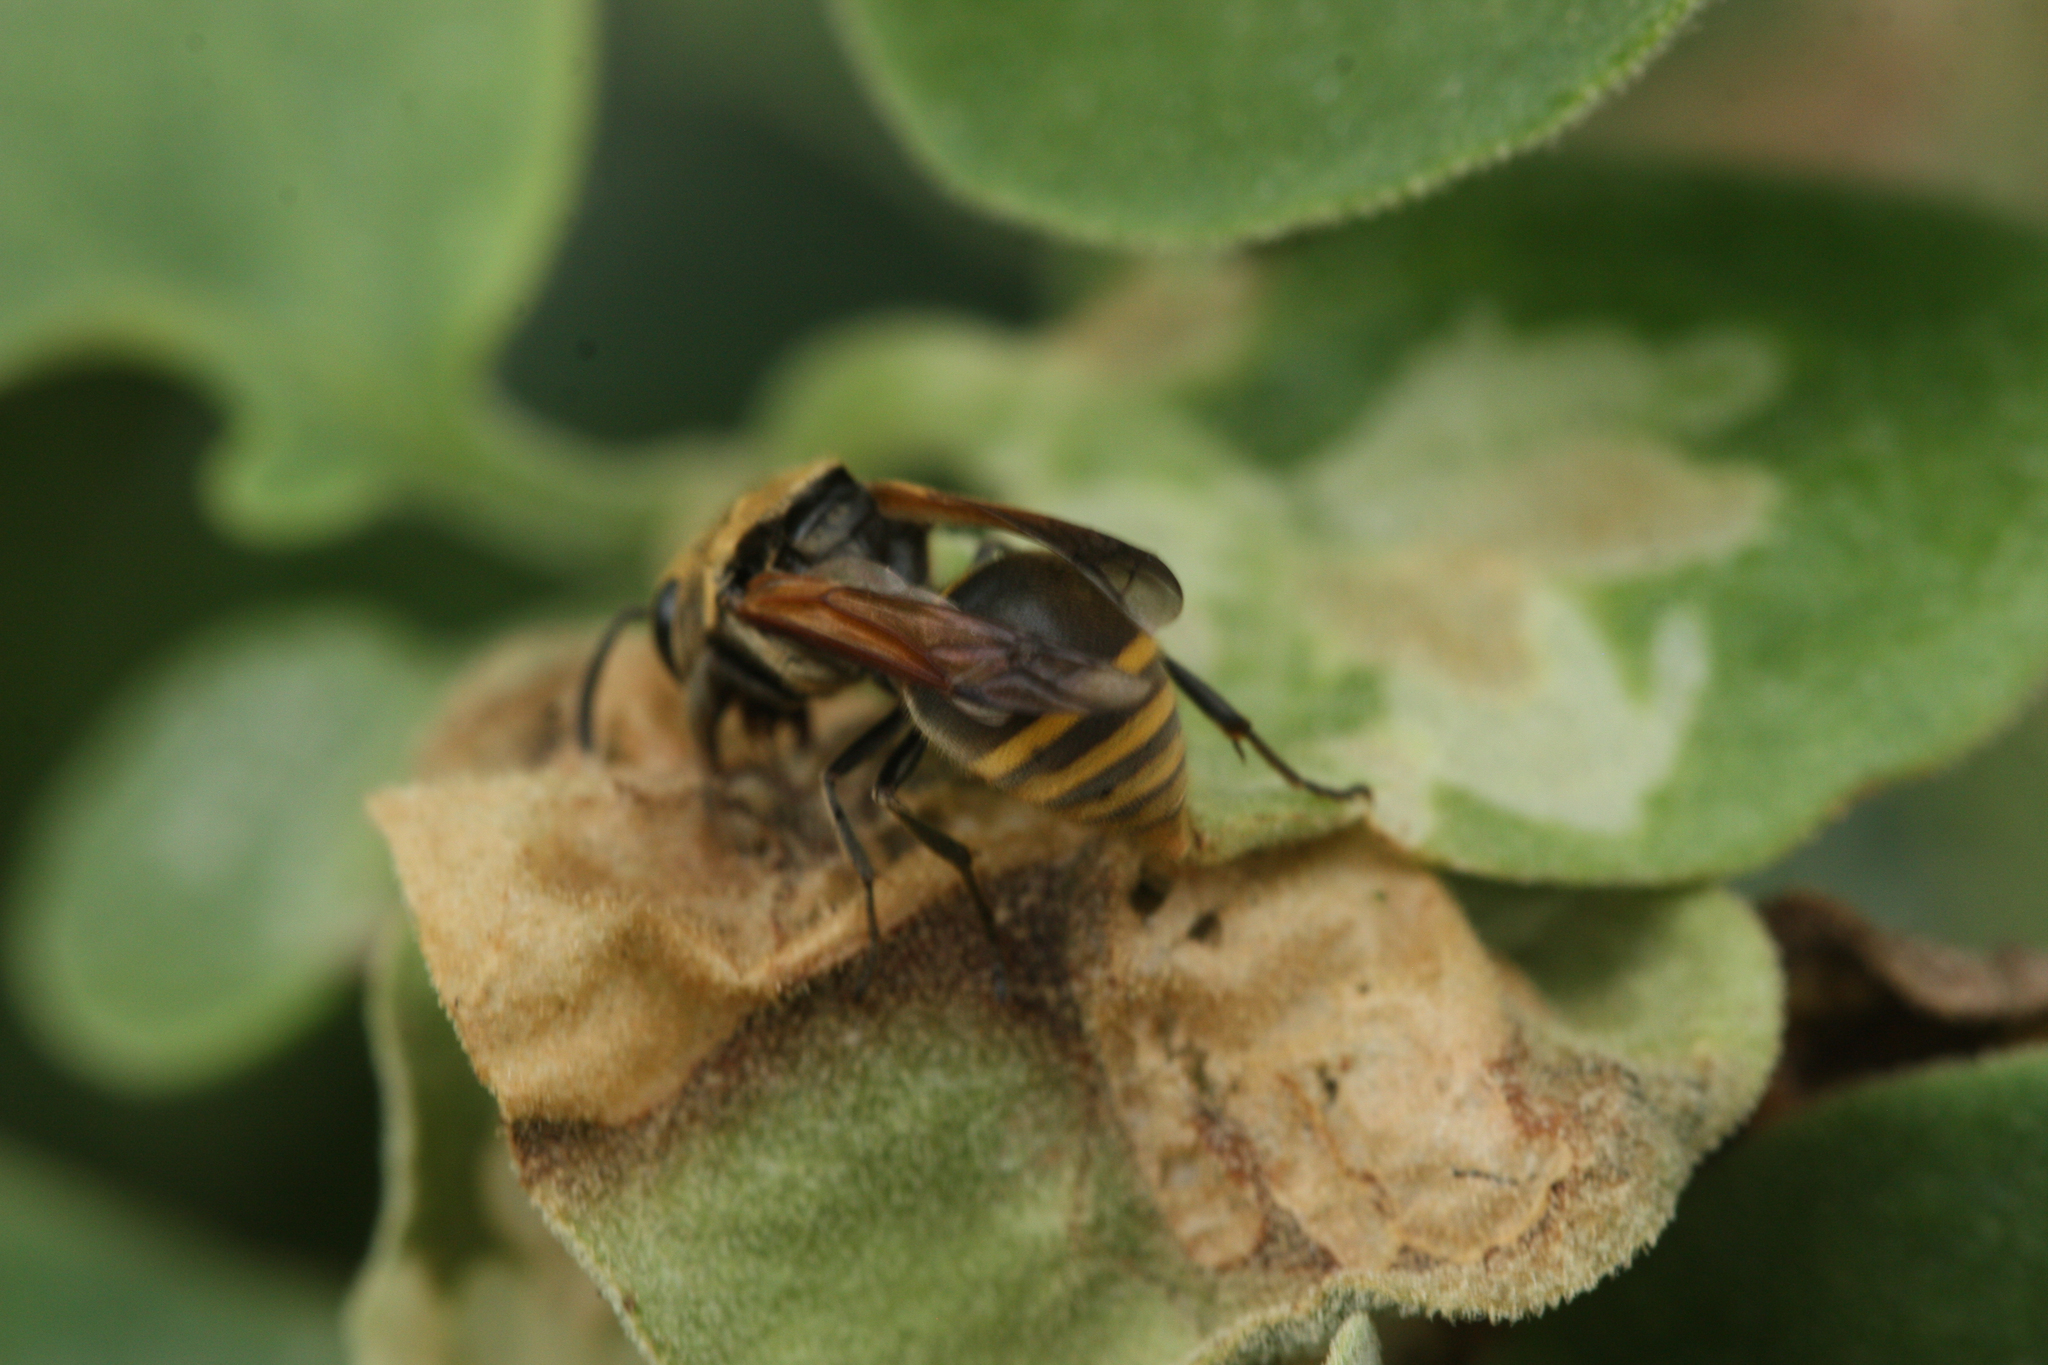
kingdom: Animalia
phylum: Arthropoda
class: Insecta
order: Hymenoptera
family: Vespidae
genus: Brachygastra
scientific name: Brachygastra lecheguana
